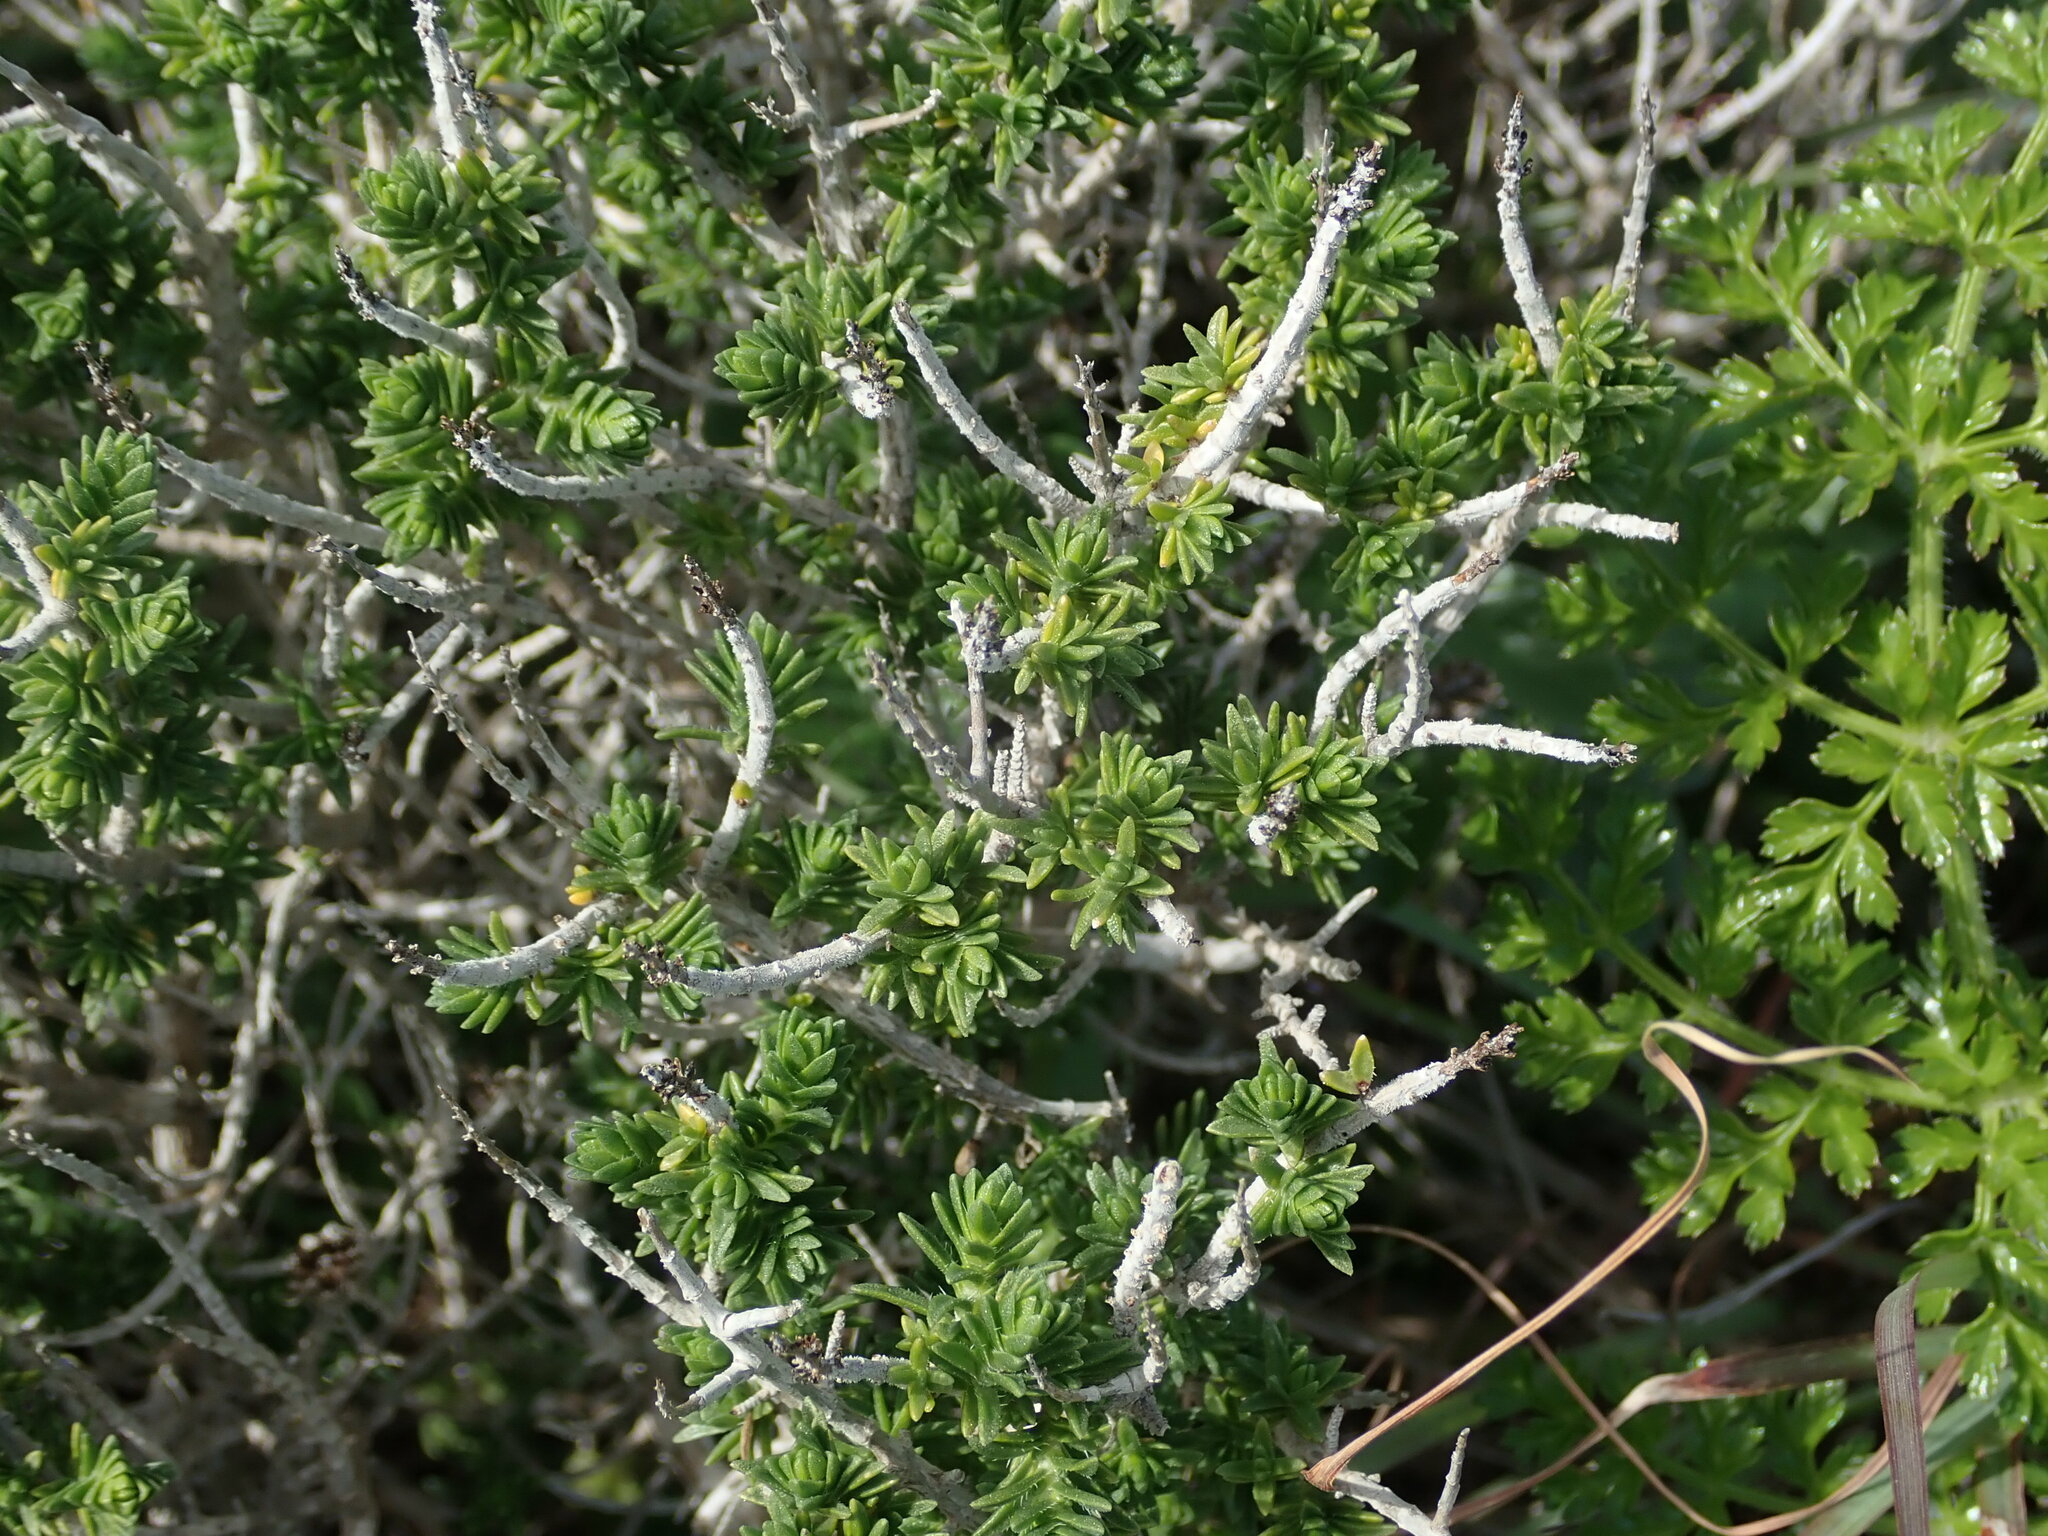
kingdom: Plantae
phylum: Tracheophyta
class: Magnoliopsida
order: Lamiales
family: Lamiaceae
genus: Thymbra
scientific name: Thymbra capitata
